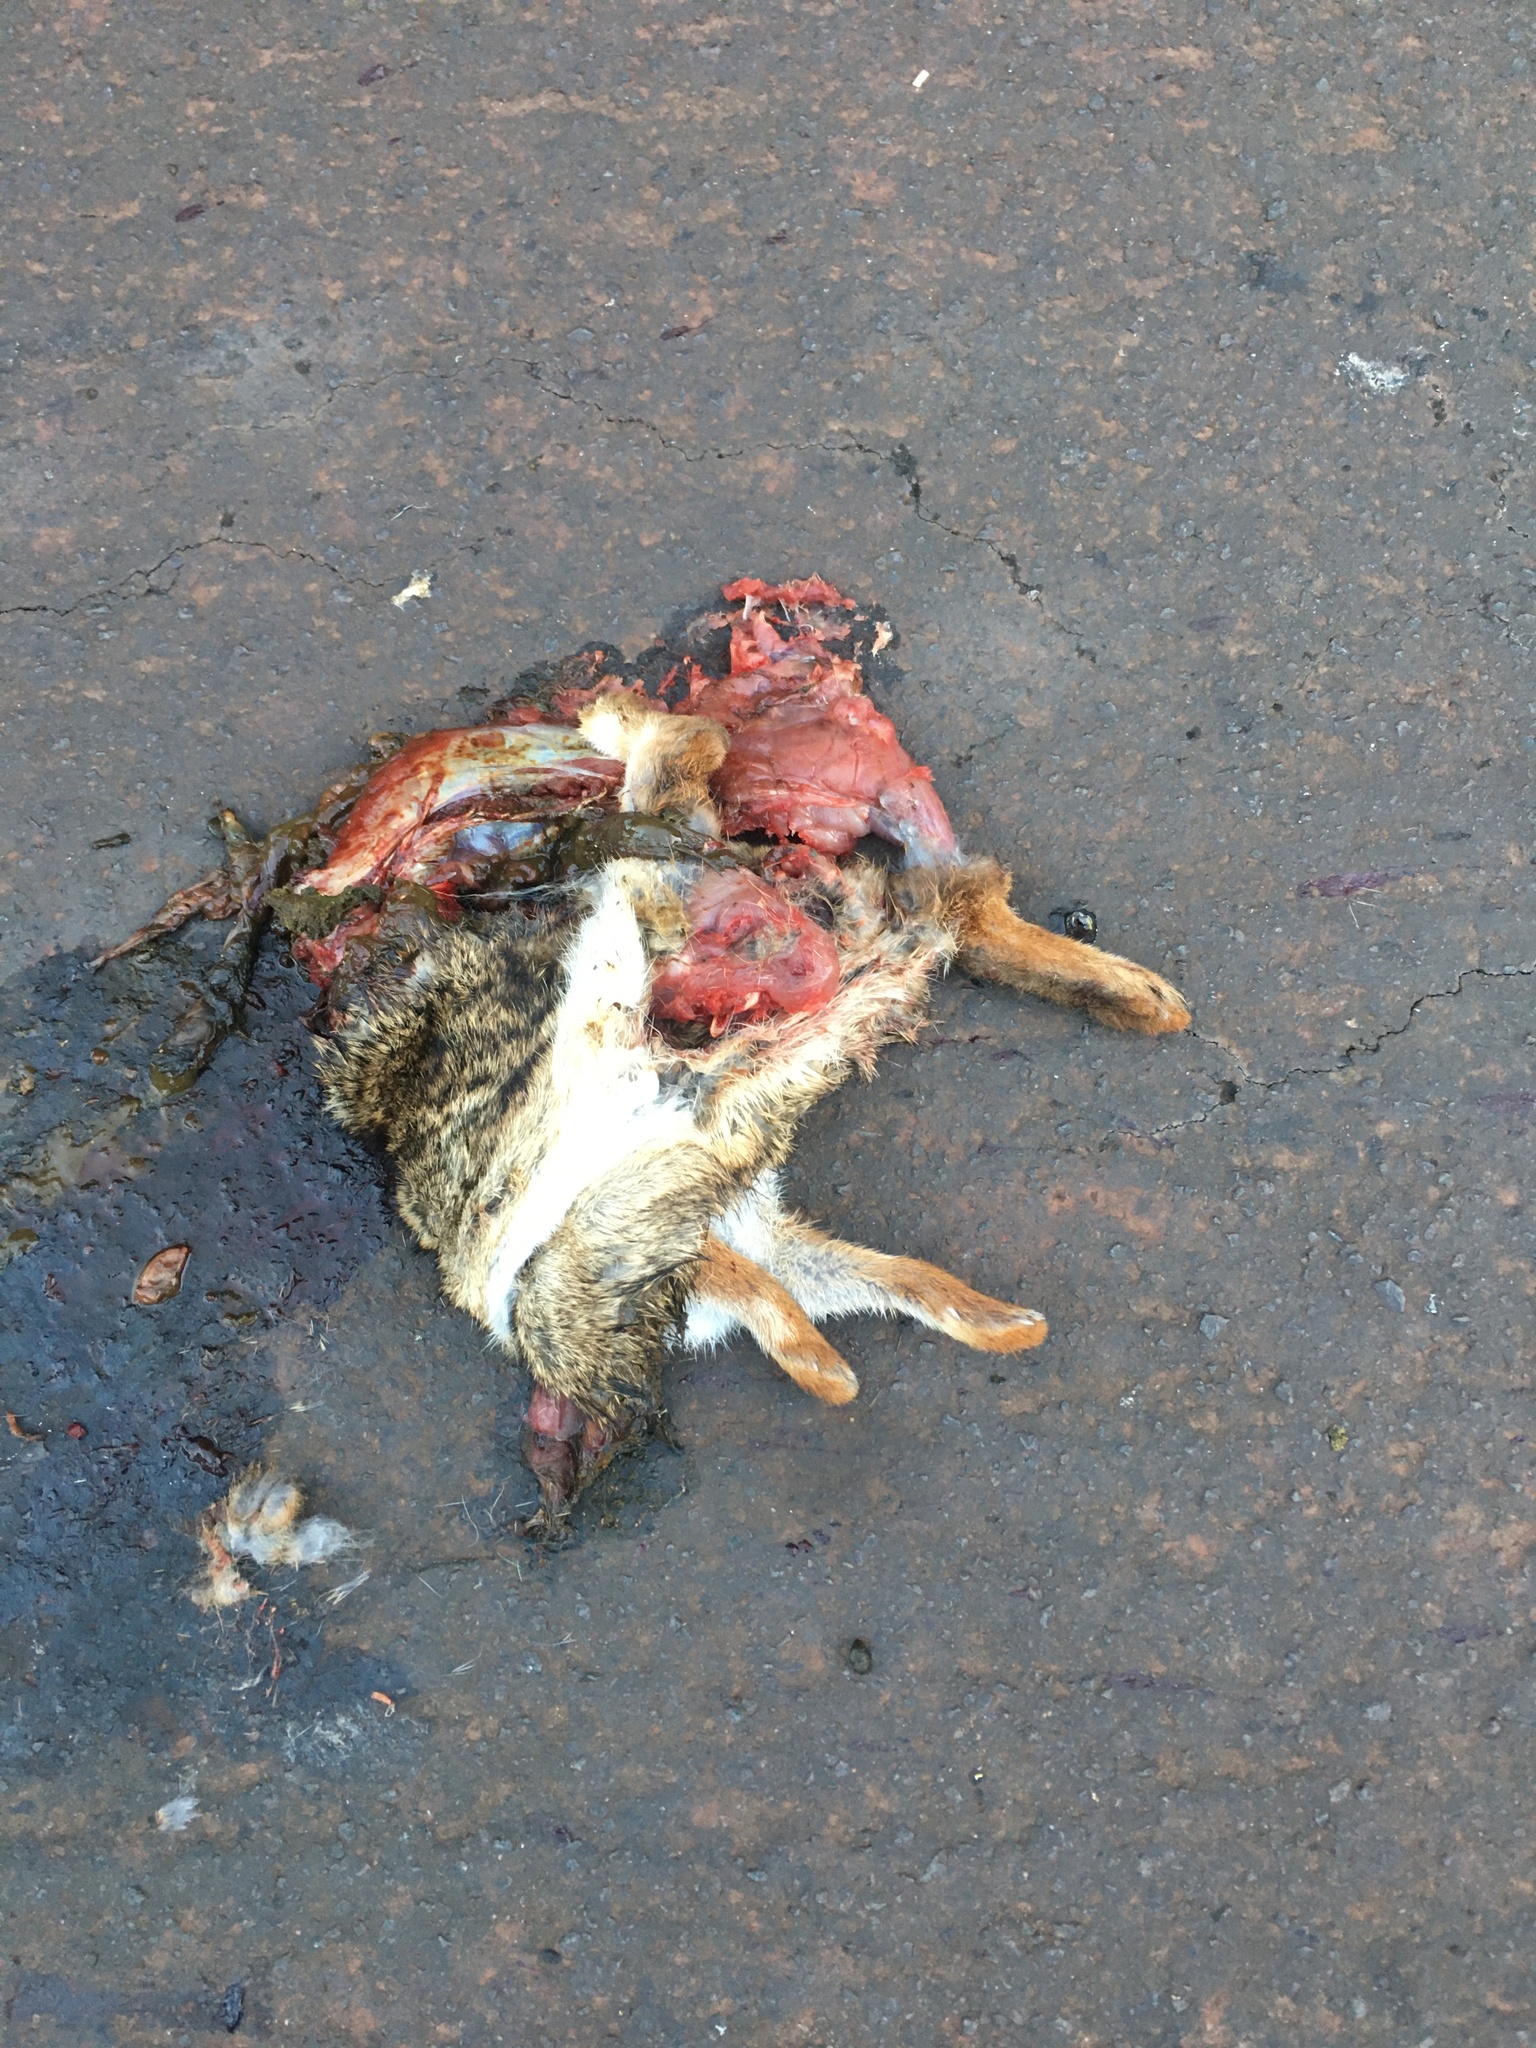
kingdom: Animalia
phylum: Chordata
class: Mammalia
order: Lagomorpha
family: Leporidae
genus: Sylvilagus
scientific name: Sylvilagus brasiliensis
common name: Tapeti
